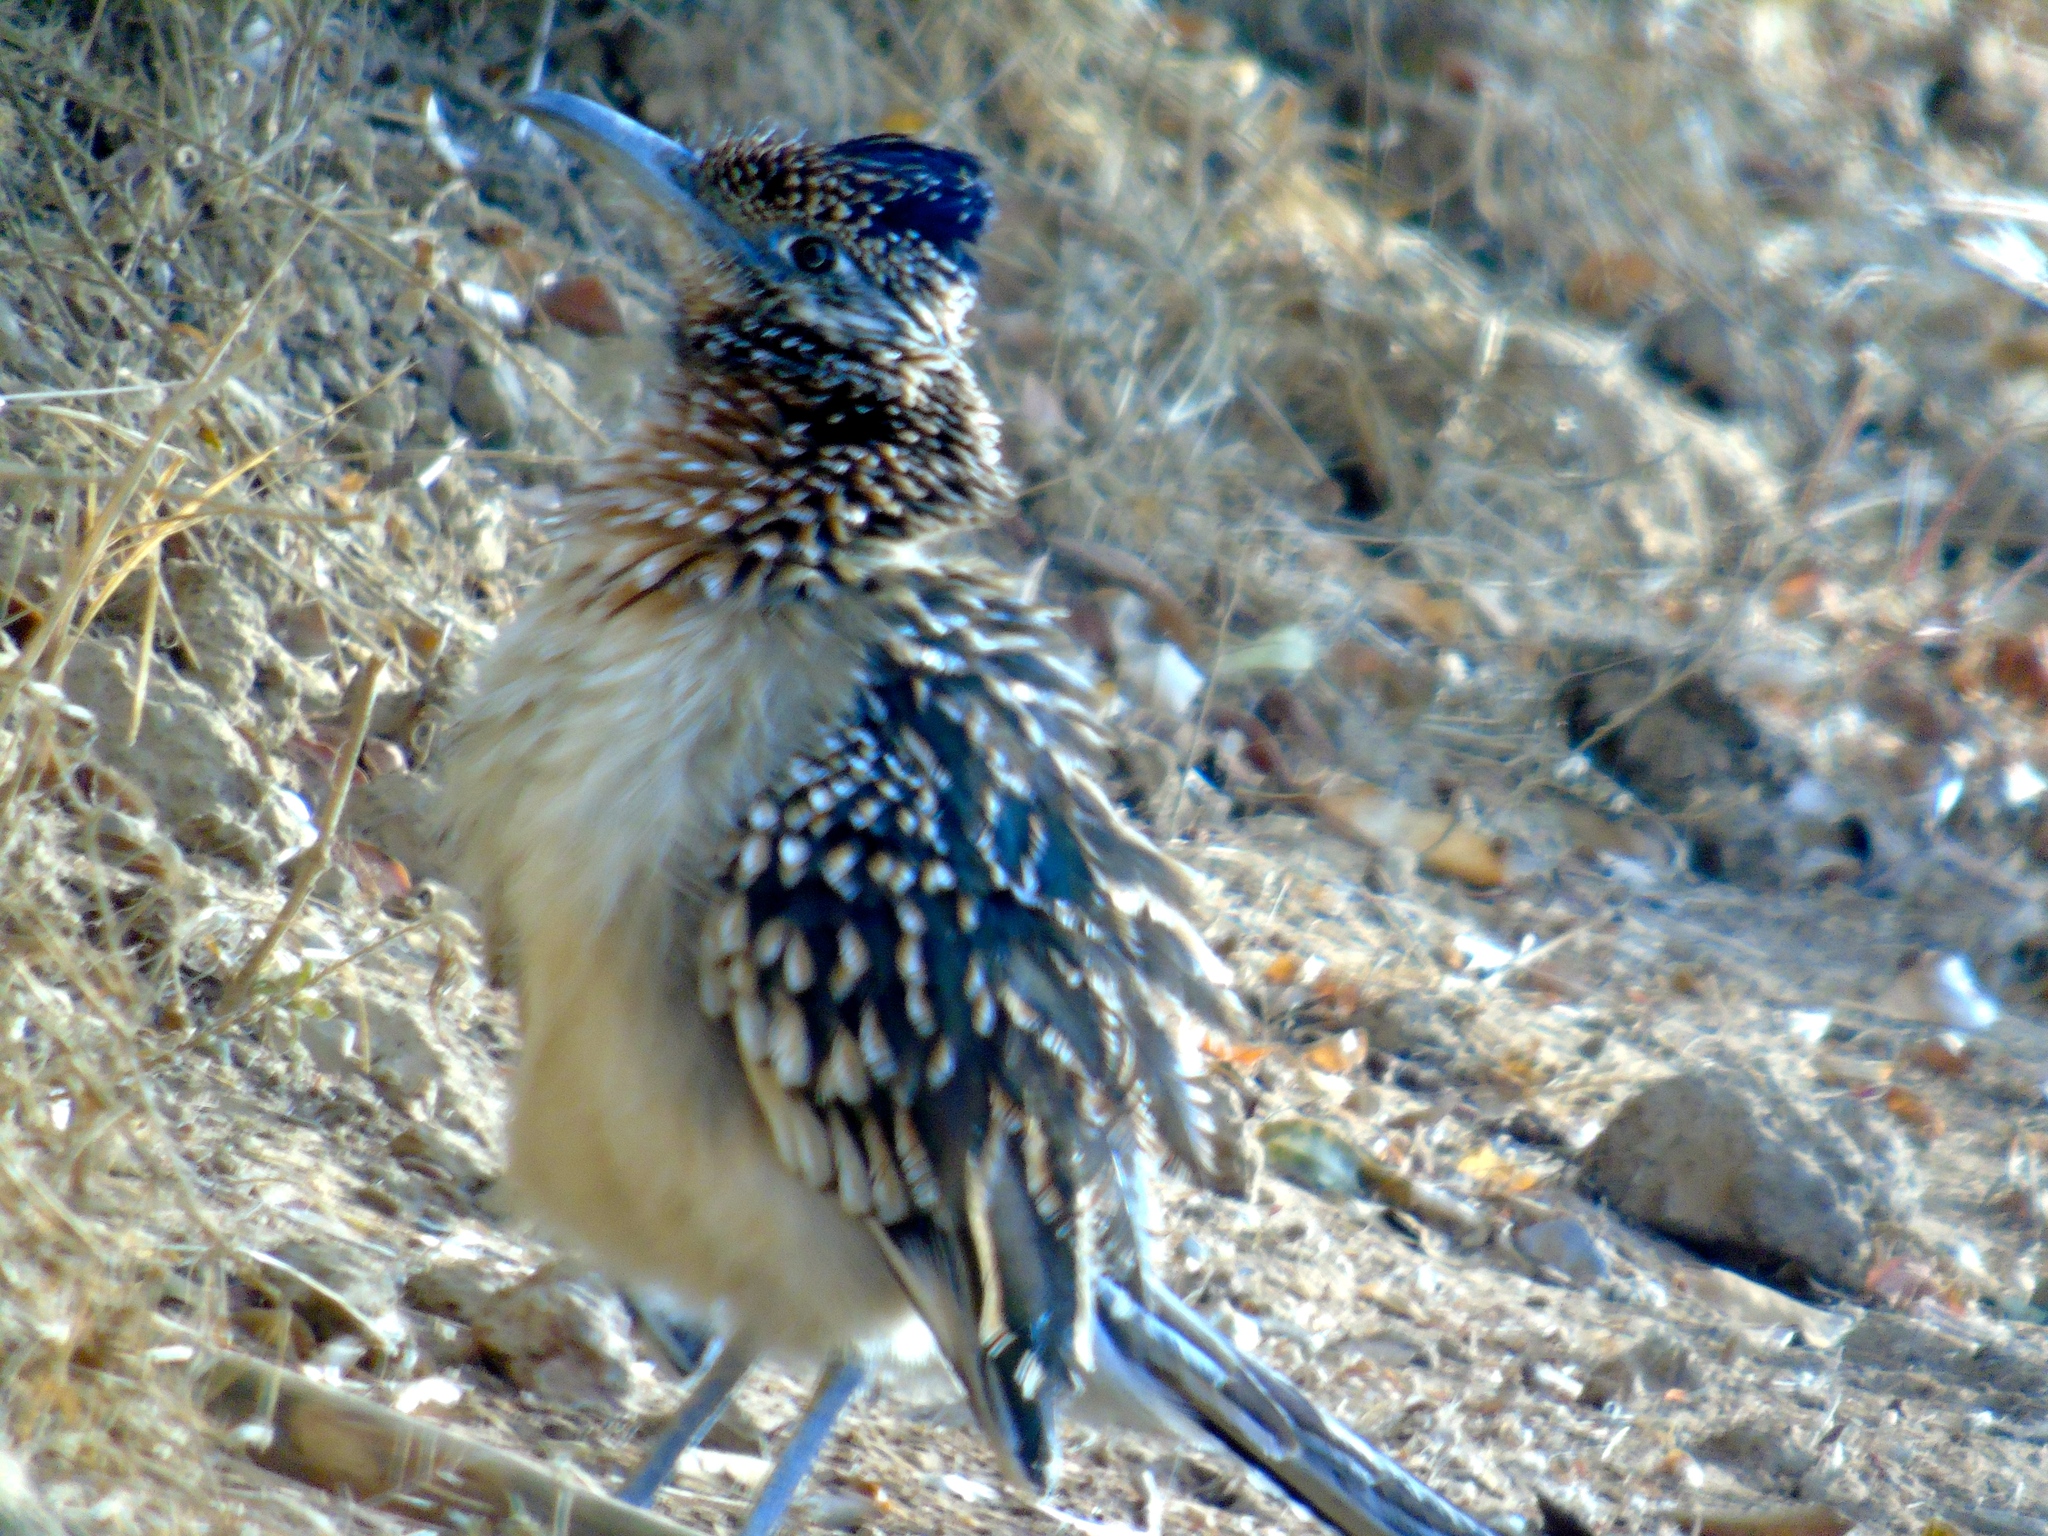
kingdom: Animalia
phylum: Chordata
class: Aves
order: Cuculiformes
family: Cuculidae
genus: Geococcyx
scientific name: Geococcyx californianus
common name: Greater roadrunner
